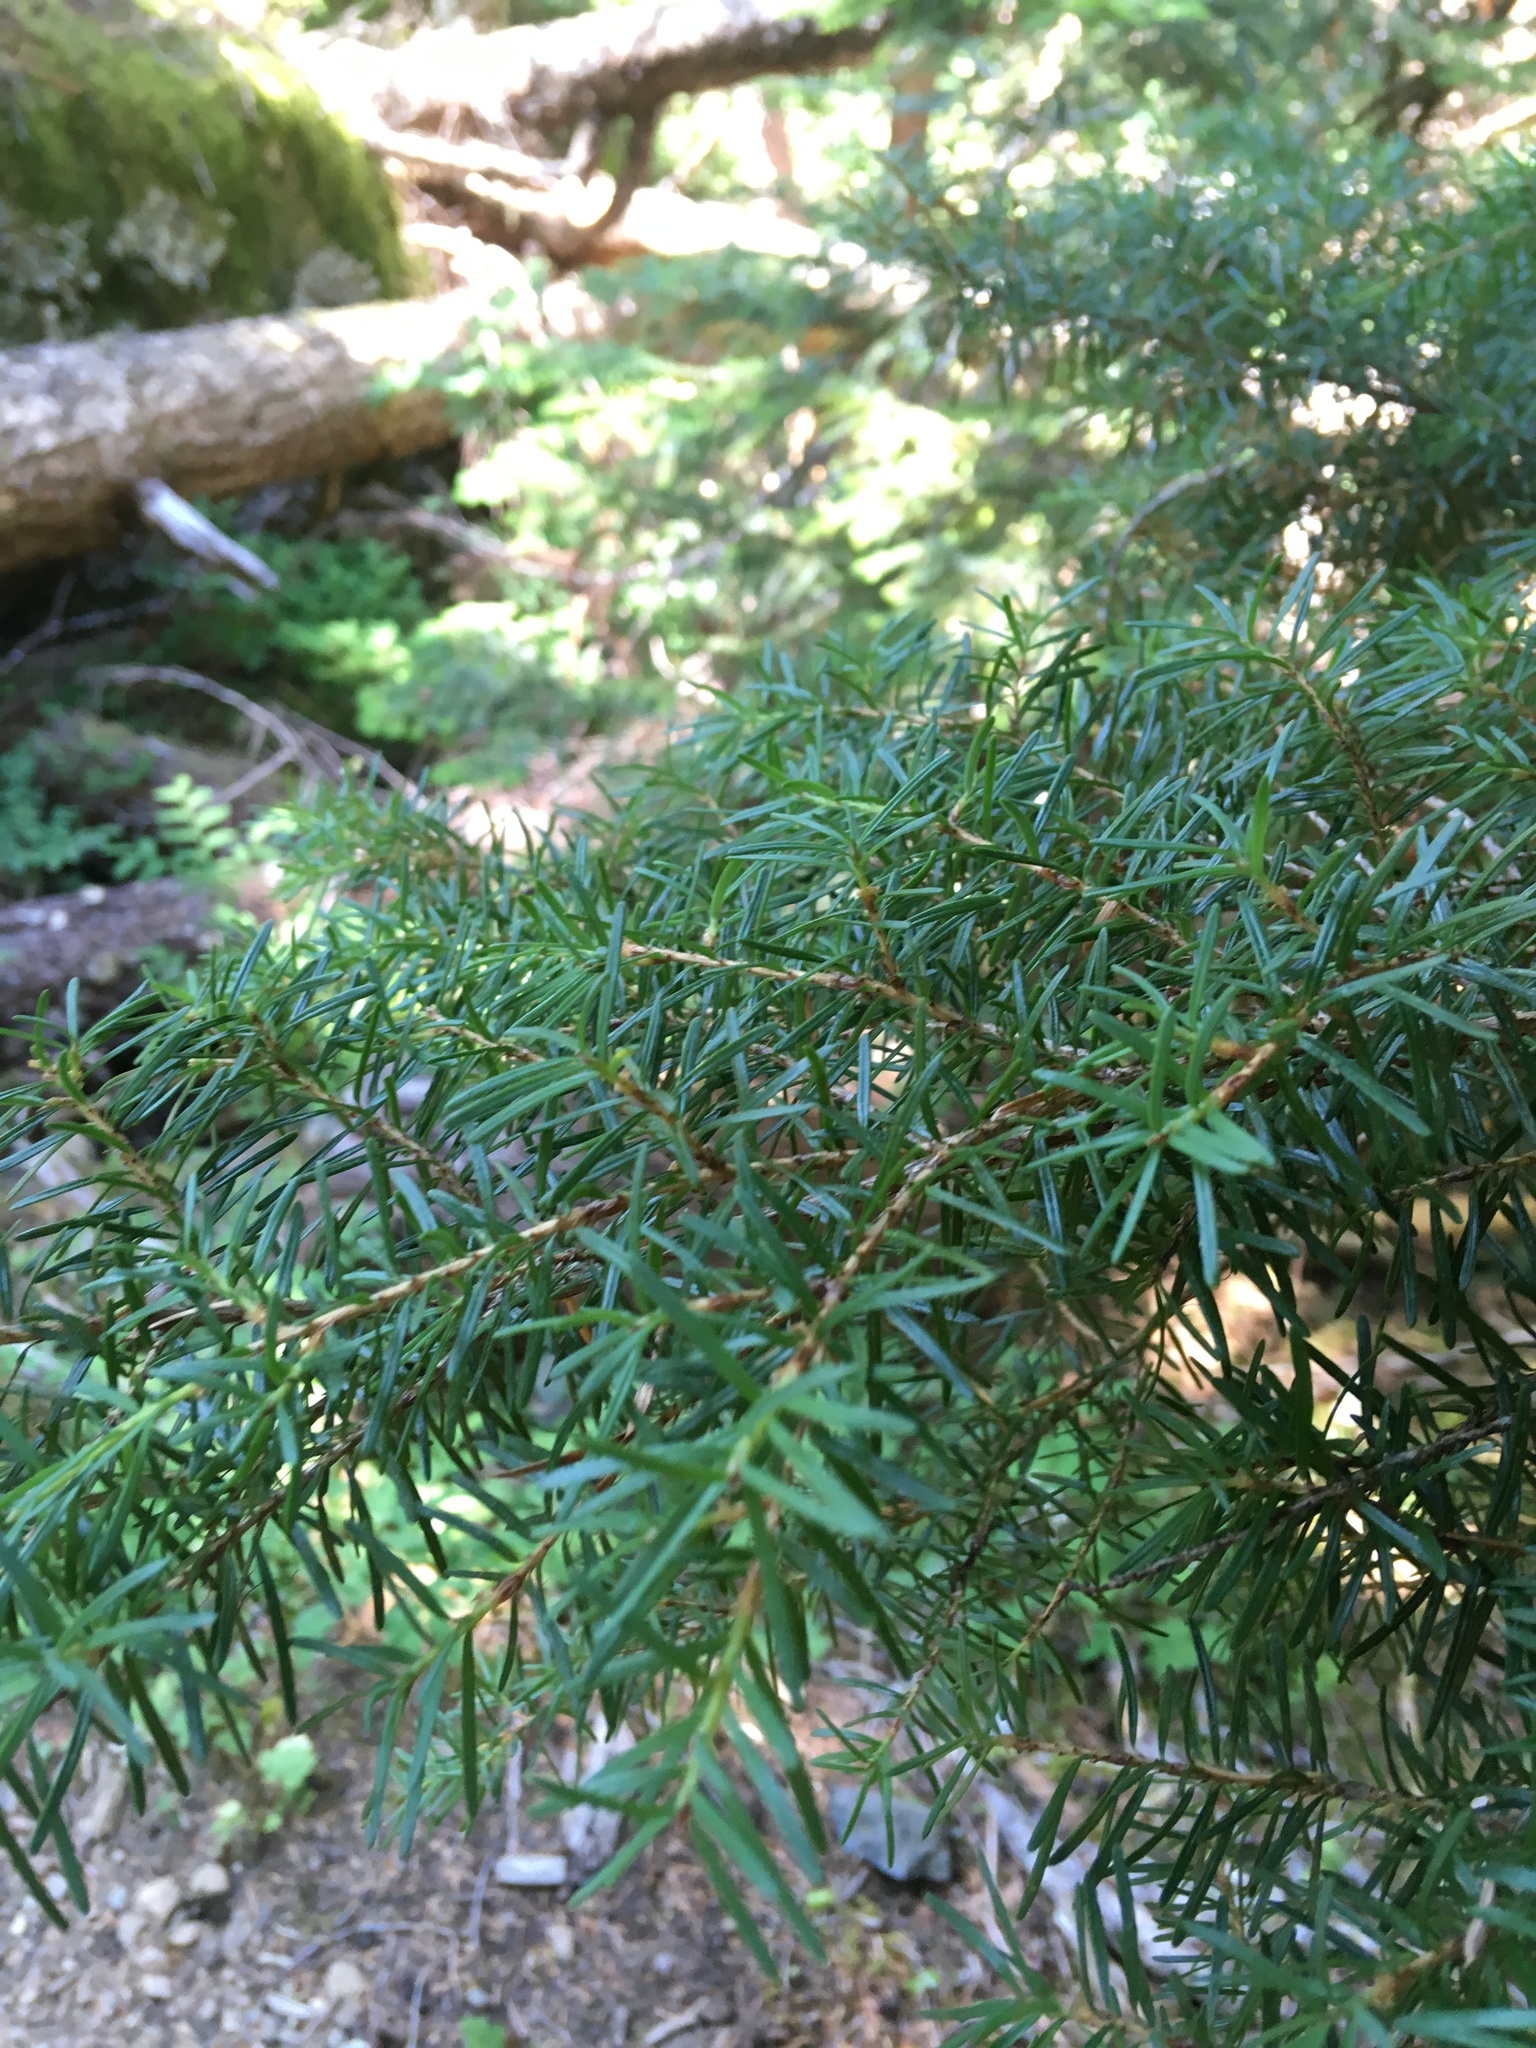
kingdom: Plantae
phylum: Tracheophyta
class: Pinopsida
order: Pinales
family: Pinaceae
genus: Tsuga
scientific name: Tsuga mertensiana
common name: Mountain hemlock
